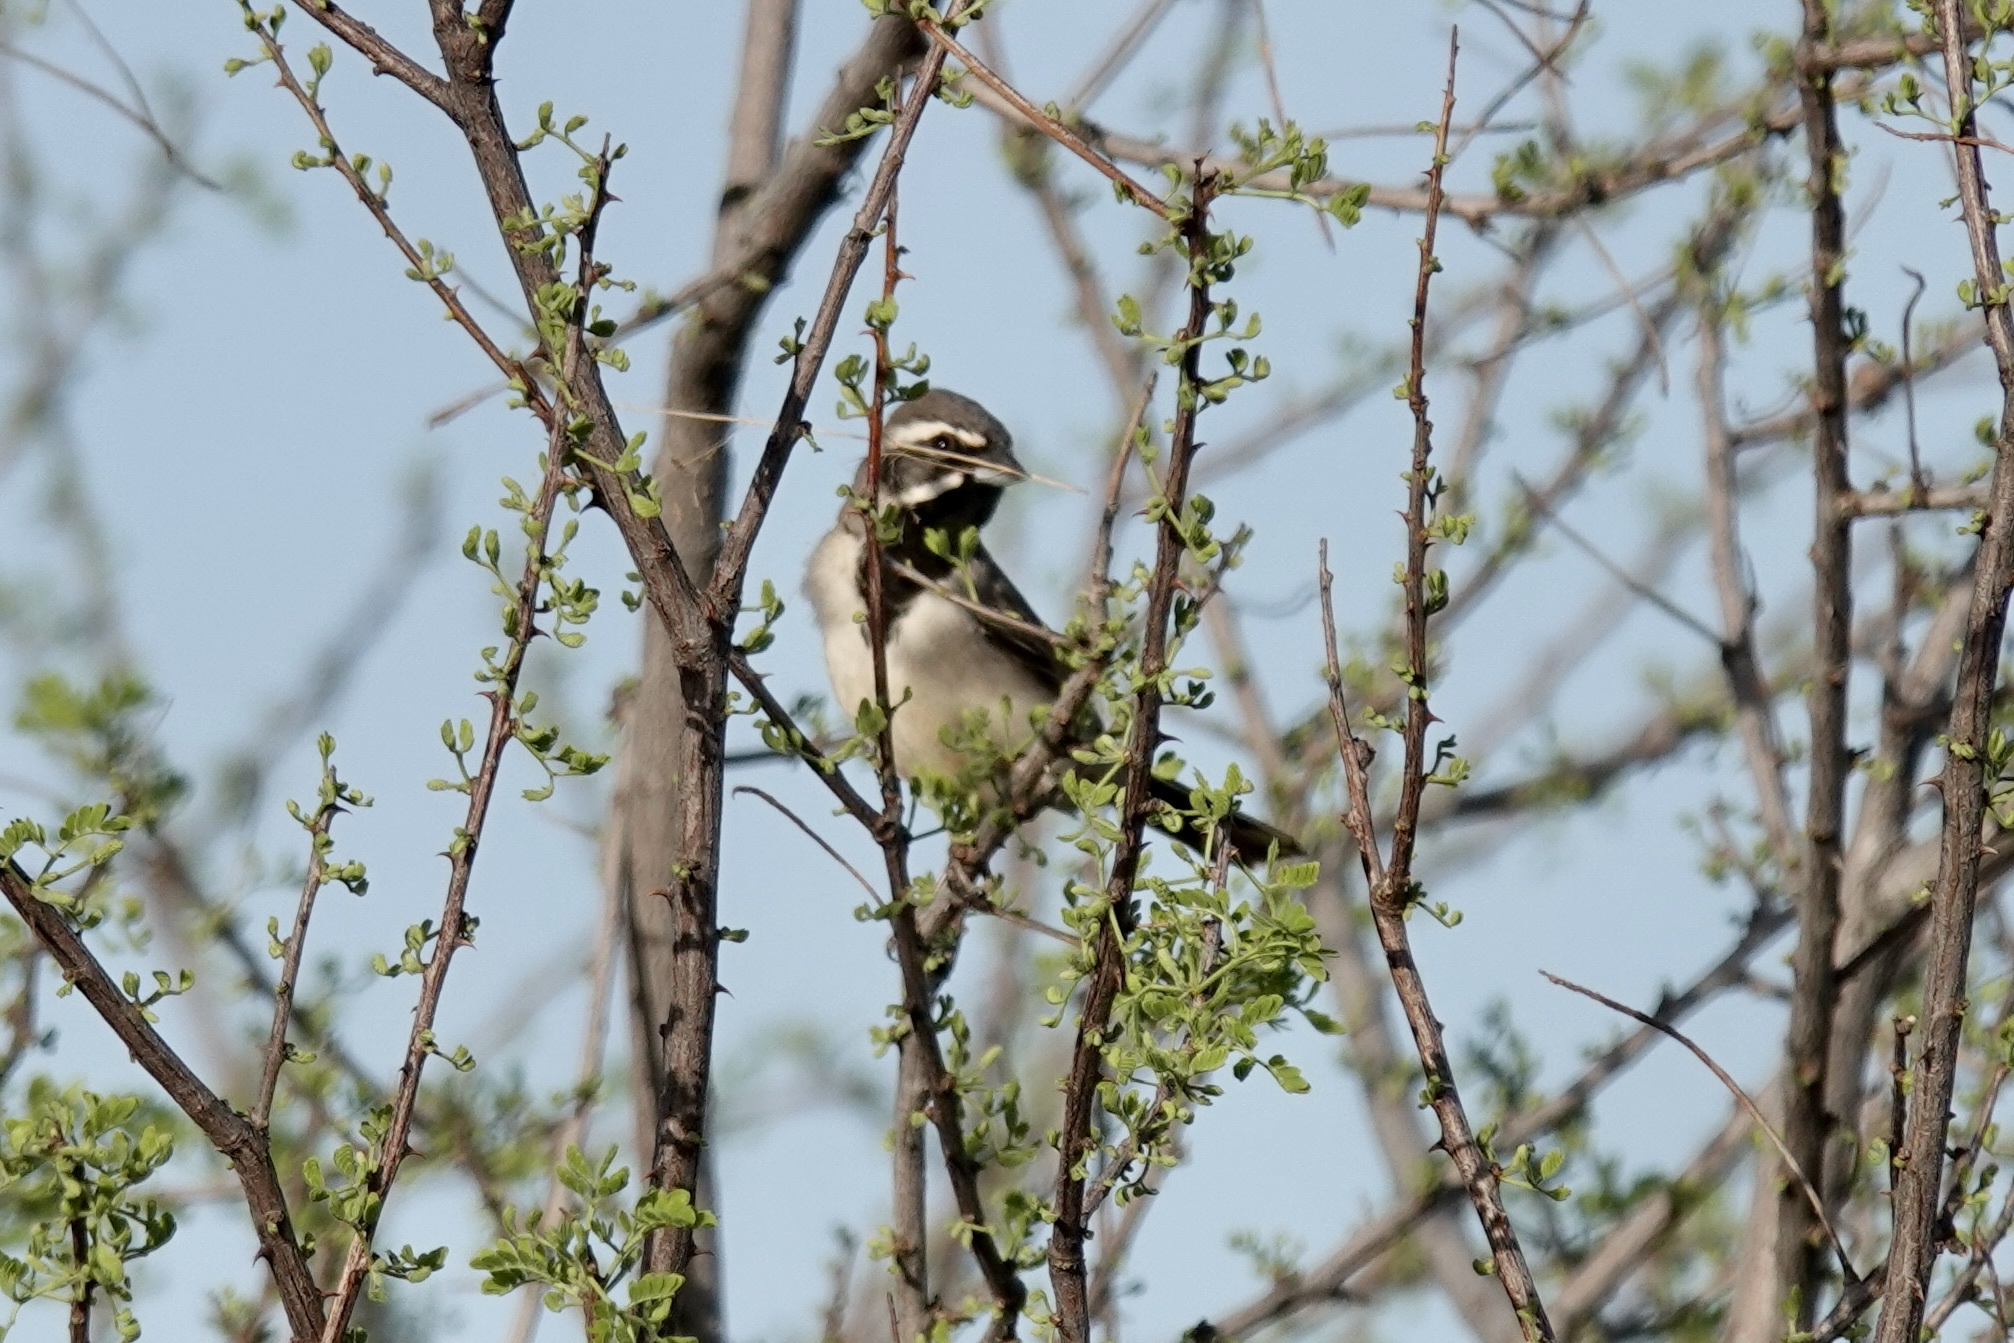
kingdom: Animalia
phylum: Chordata
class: Aves
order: Passeriformes
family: Passerellidae
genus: Amphispiza
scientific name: Amphispiza bilineata
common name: Black-throated sparrow
